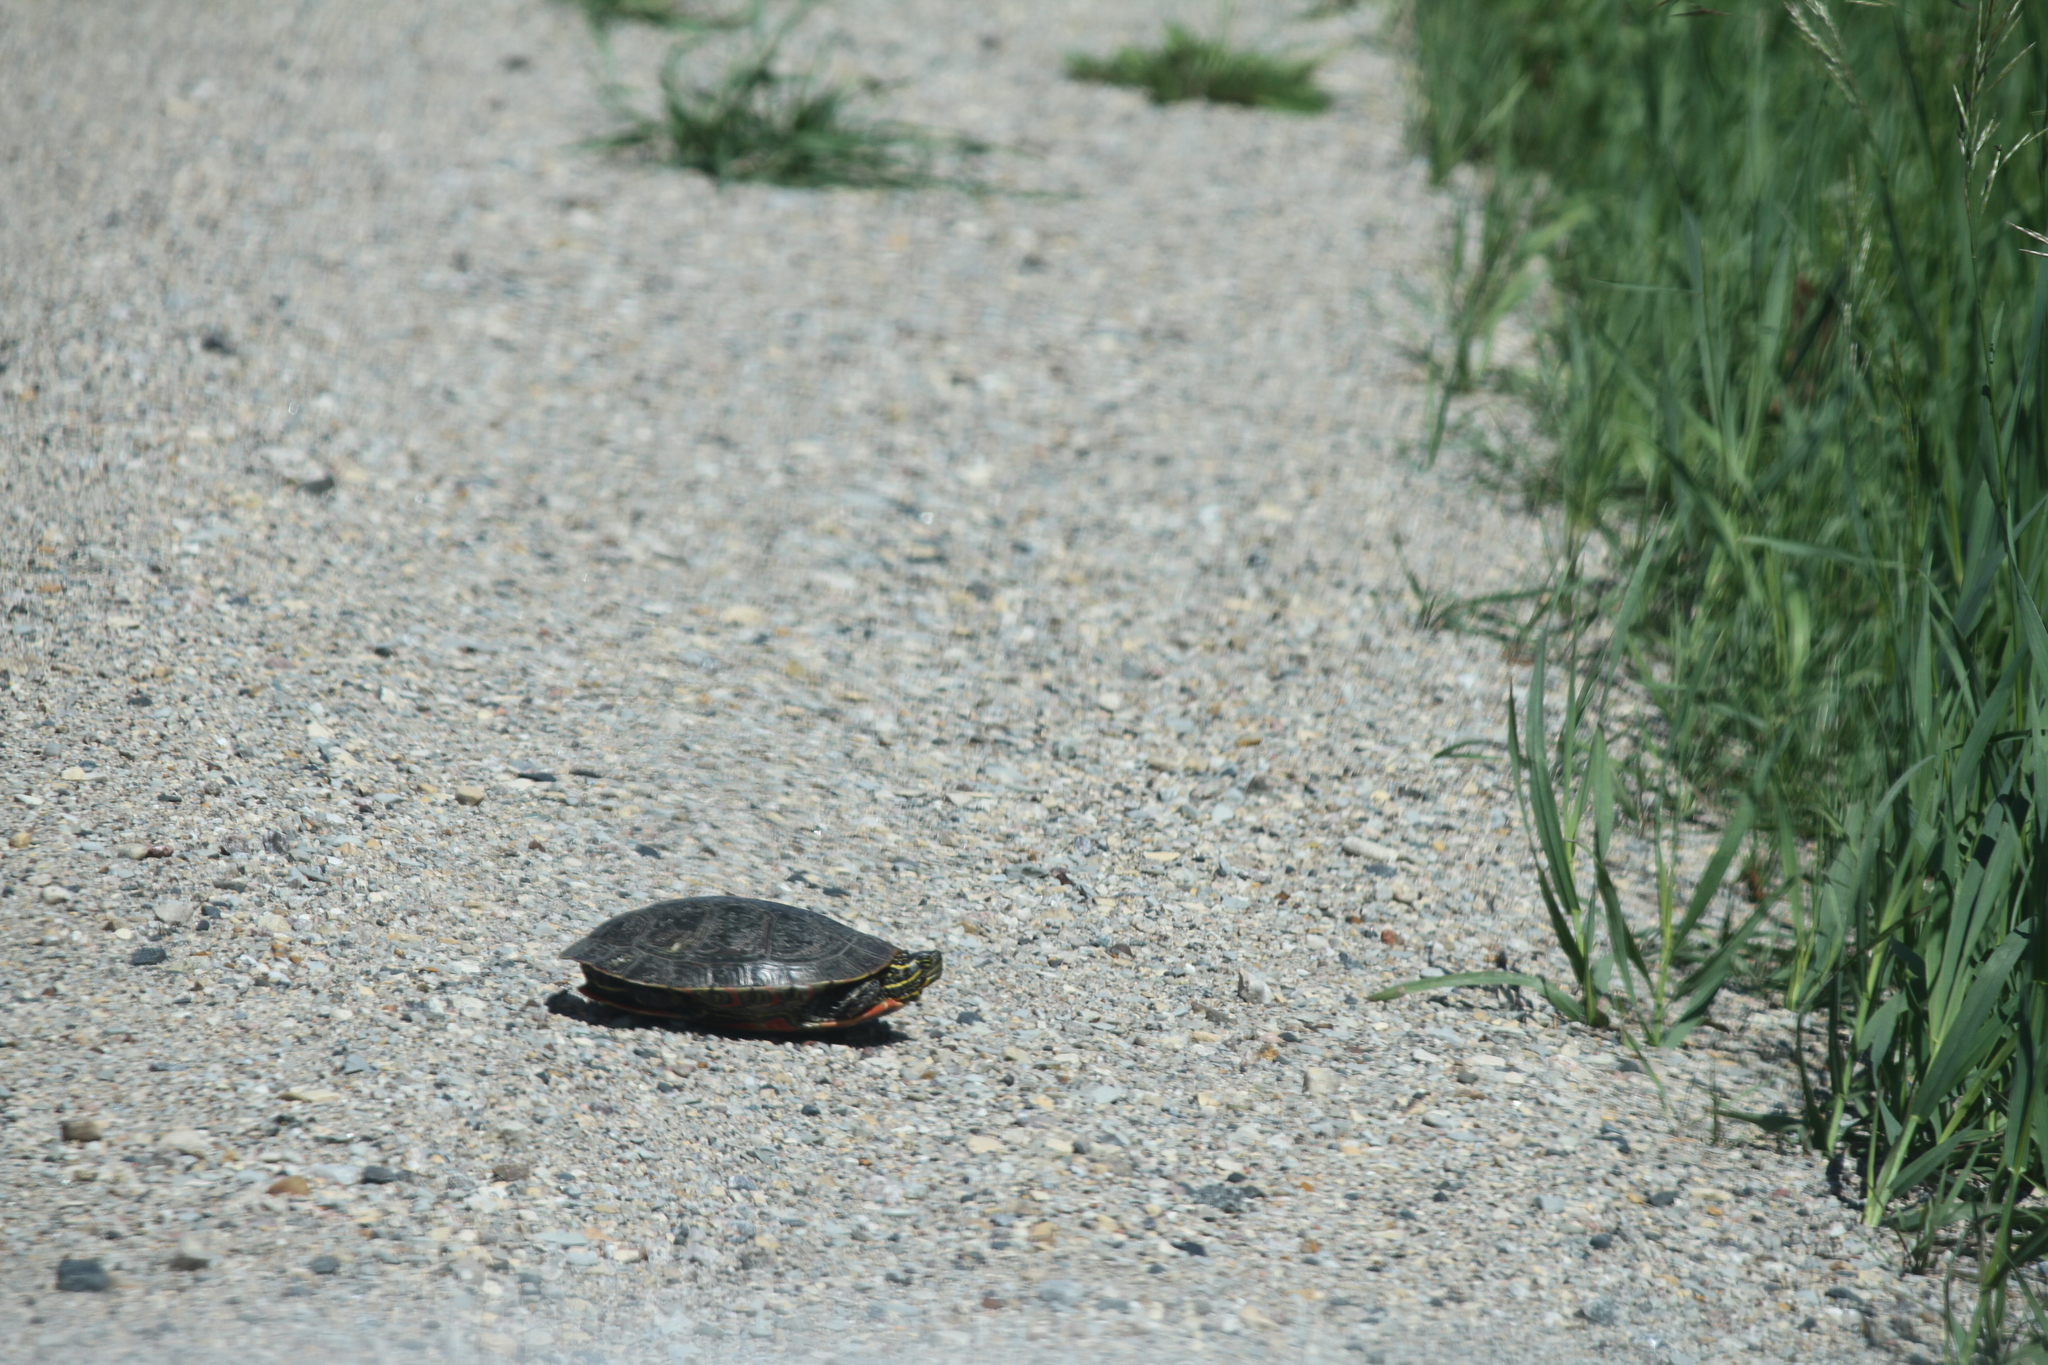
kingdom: Animalia
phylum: Chordata
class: Testudines
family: Emydidae
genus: Chrysemys
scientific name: Chrysemys picta
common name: Painted turtle
